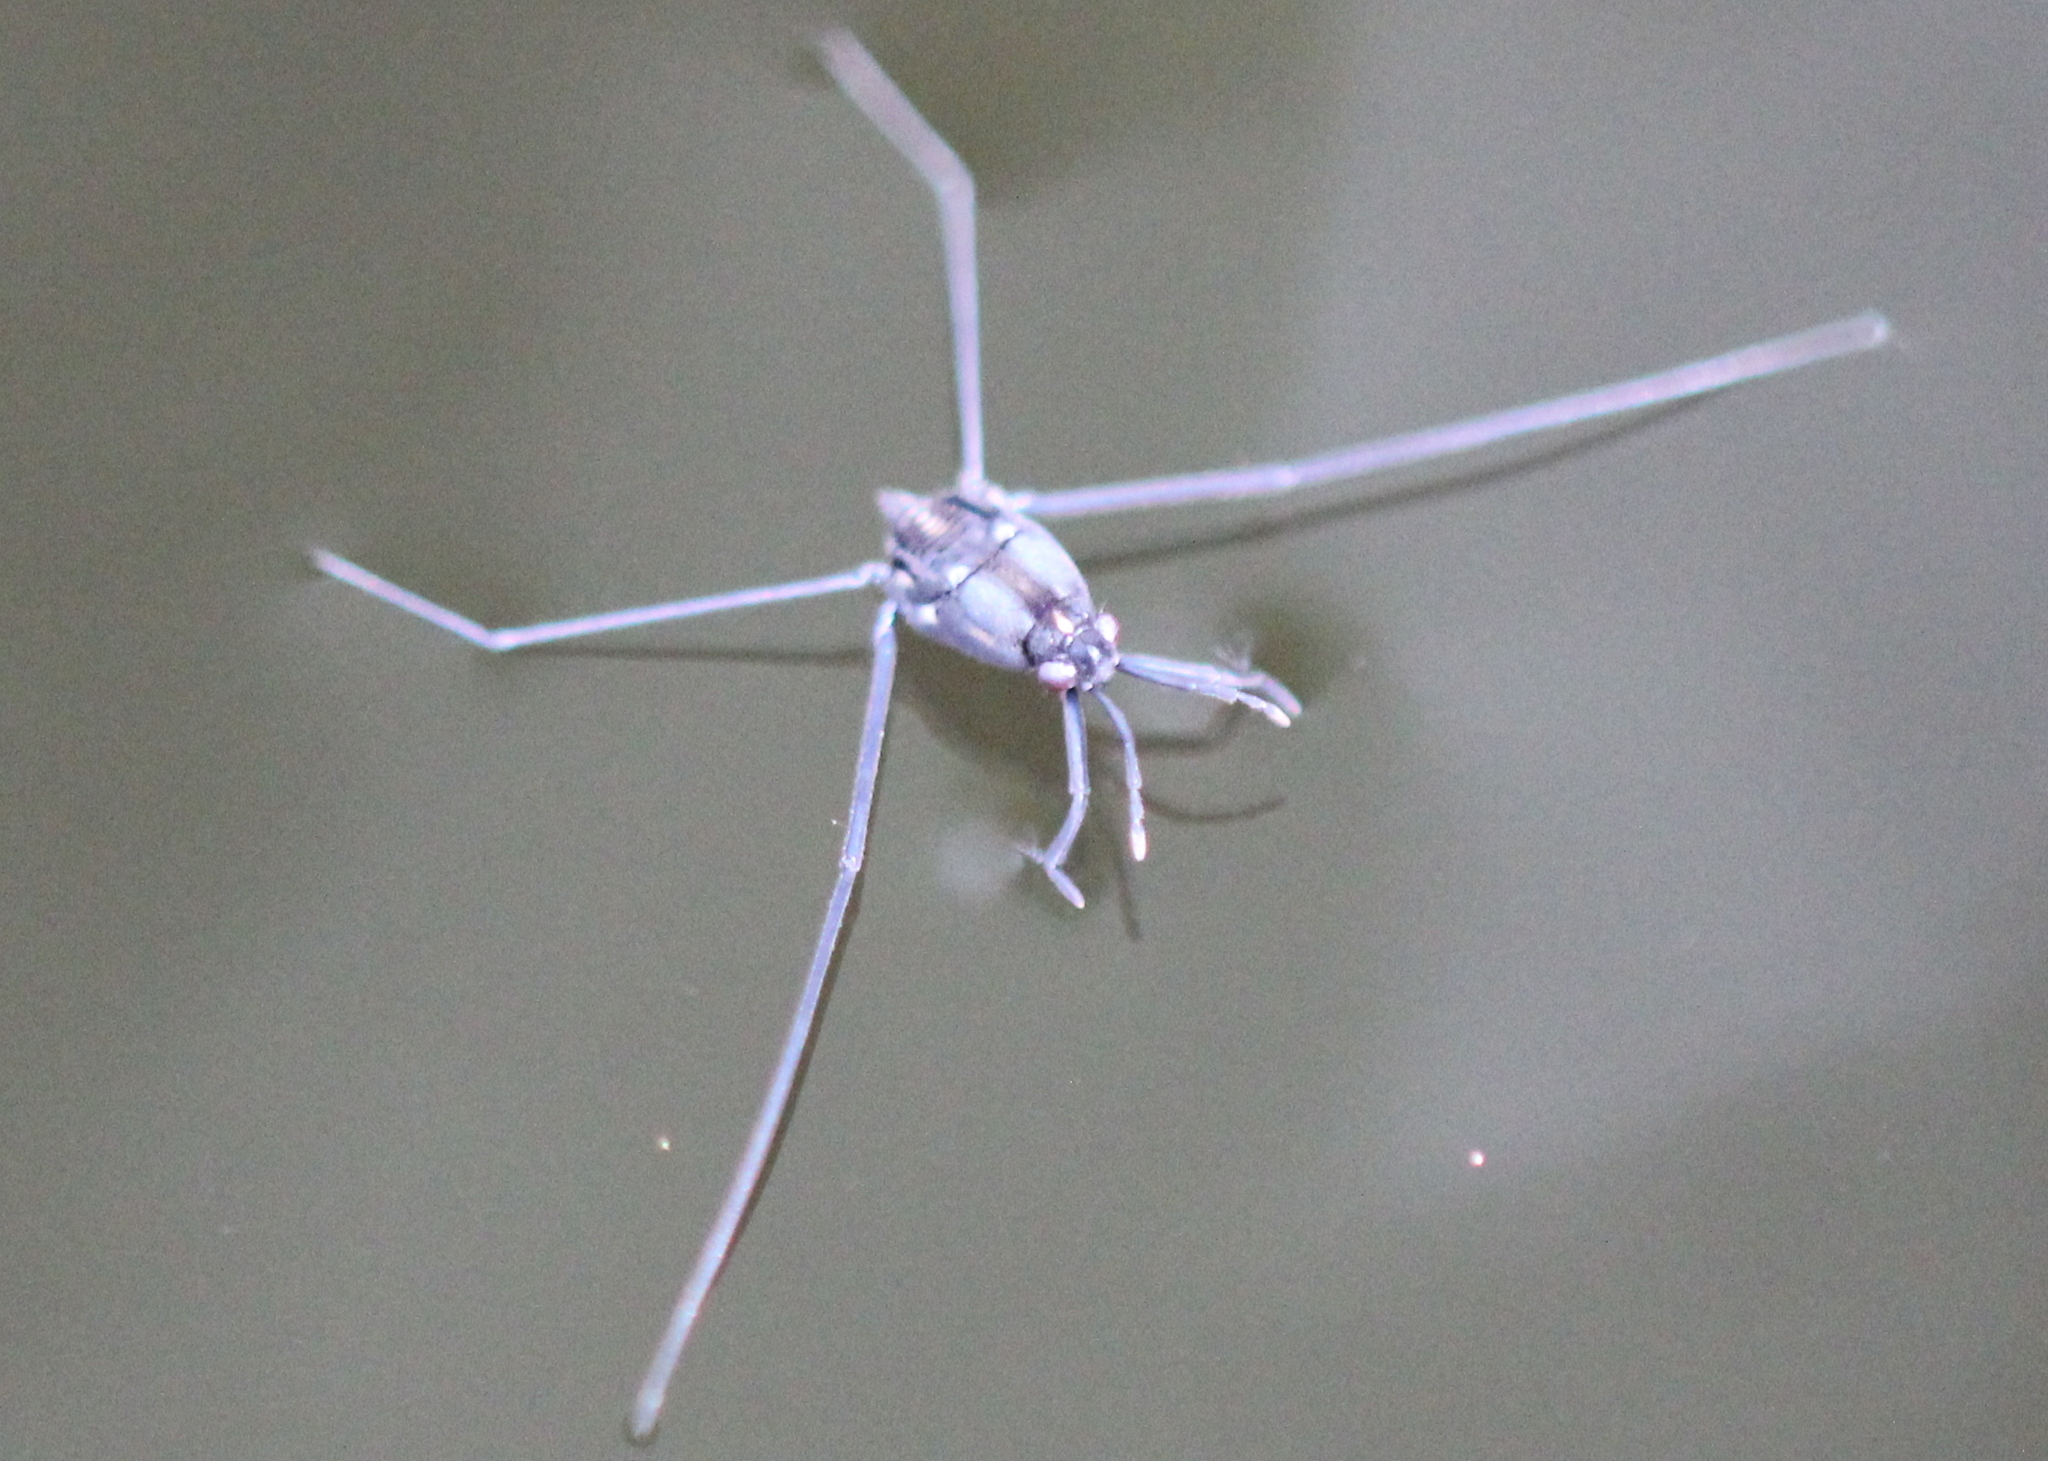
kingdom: Animalia
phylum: Arthropoda
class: Insecta
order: Hemiptera
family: Gerridae
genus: Metrobates
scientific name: Metrobates hesperius
